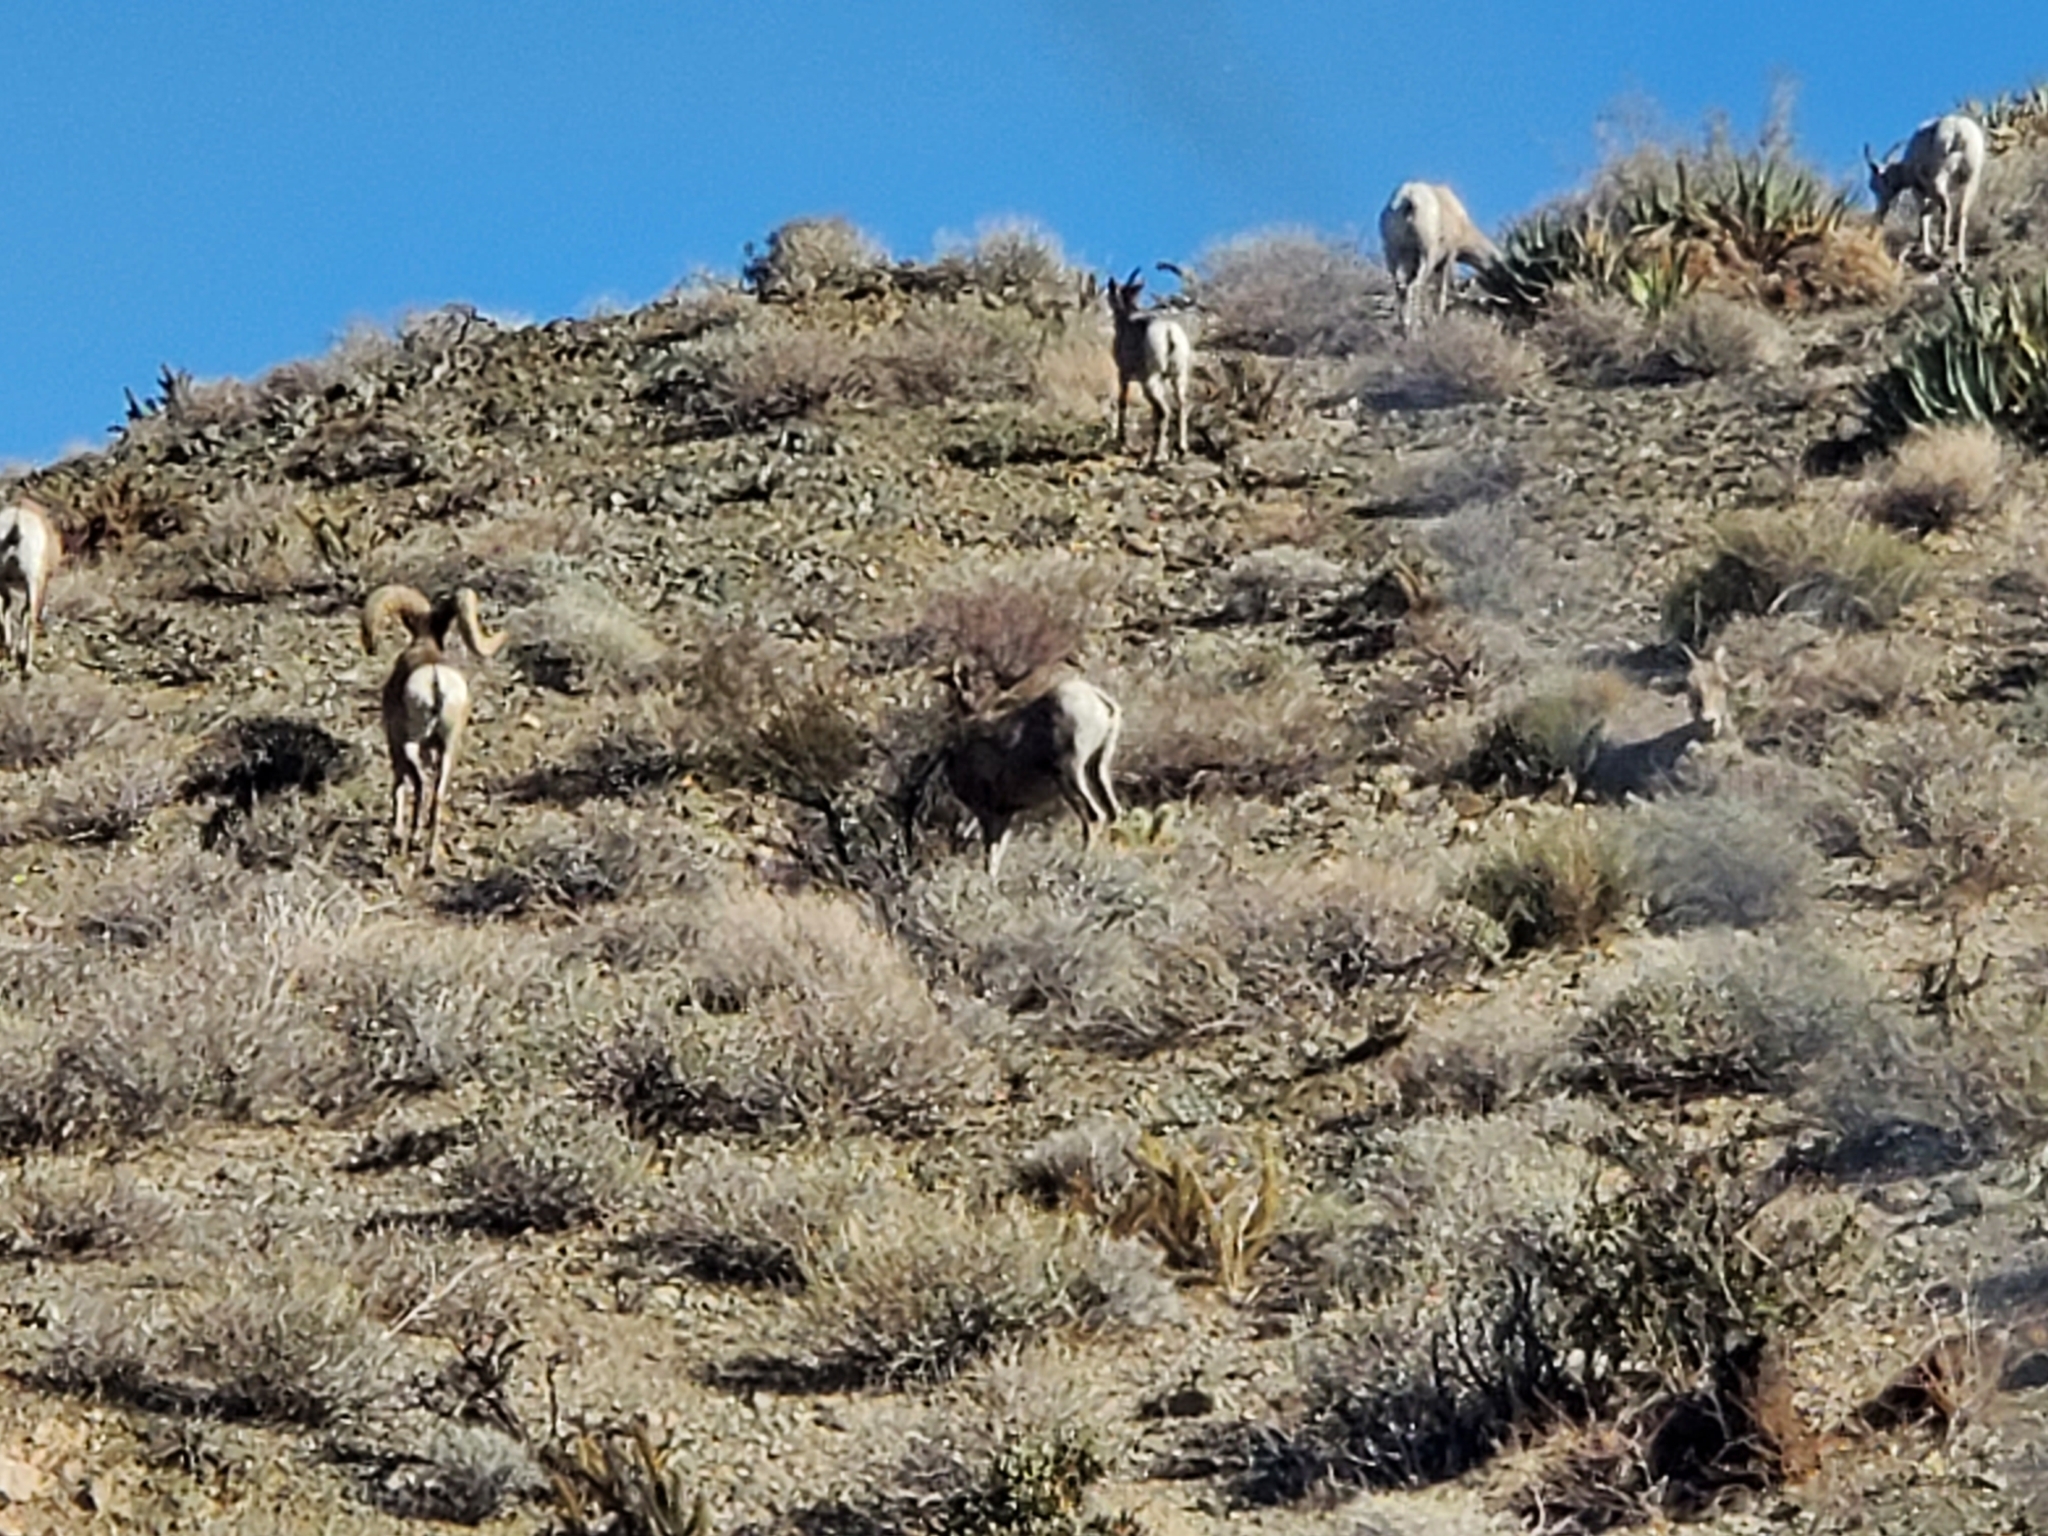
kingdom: Animalia
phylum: Chordata
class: Mammalia
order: Artiodactyla
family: Bovidae
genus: Ovis
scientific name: Ovis canadensis
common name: Bighorn sheep
